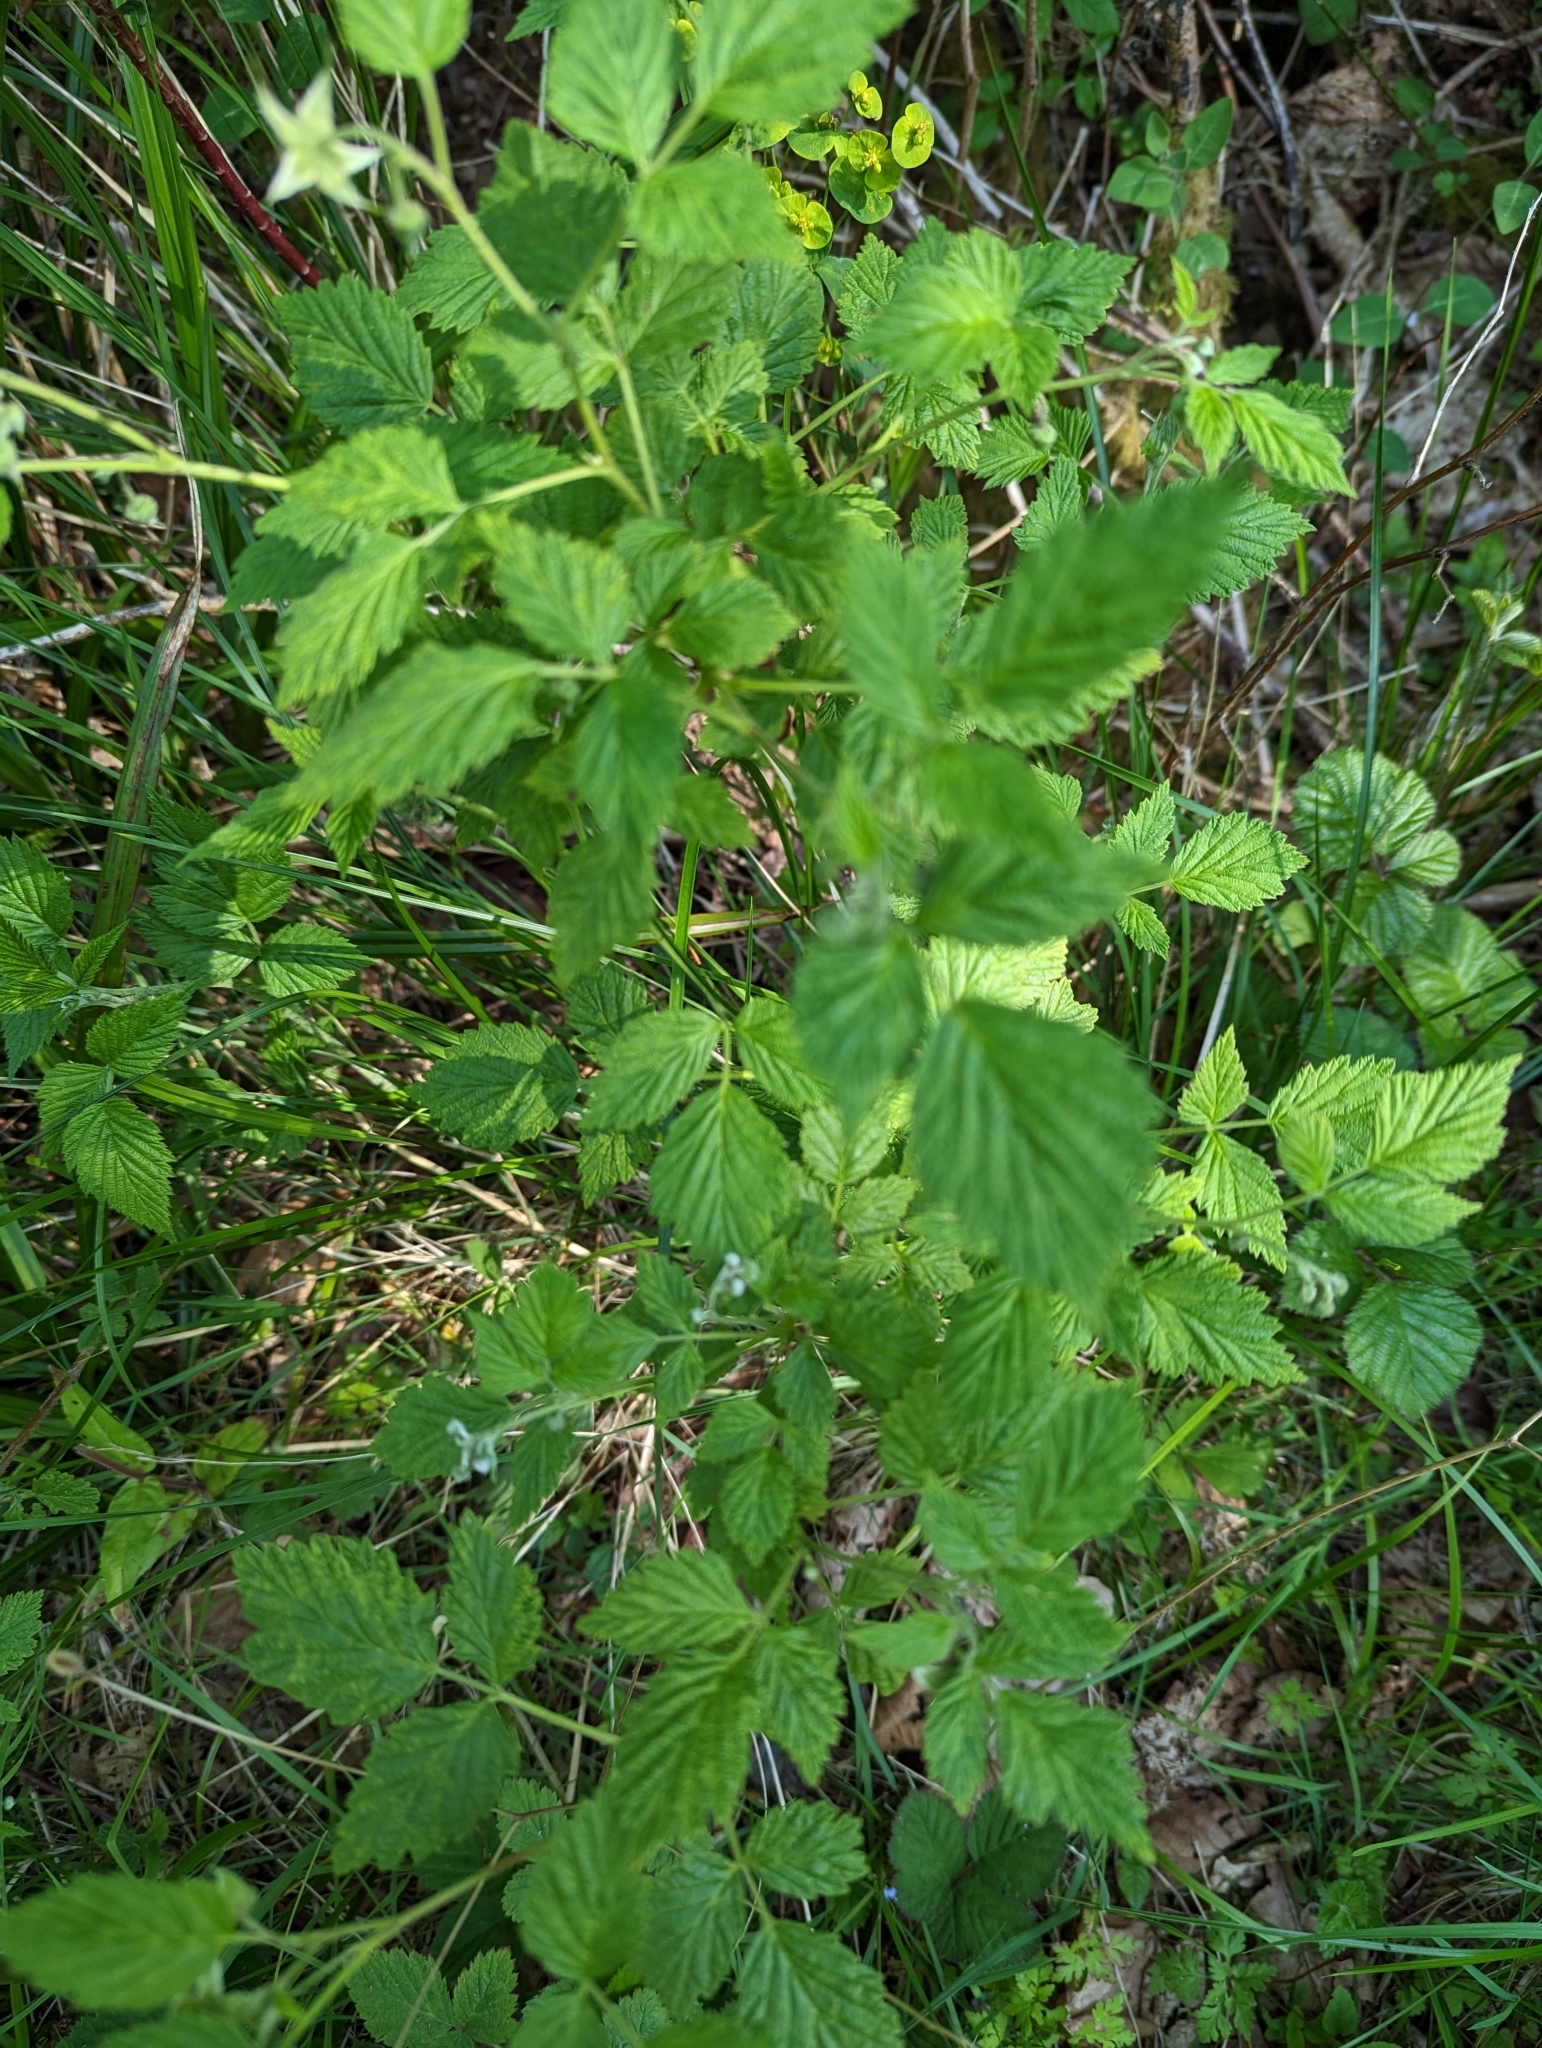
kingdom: Plantae
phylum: Tracheophyta
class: Magnoliopsida
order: Rosales
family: Rosaceae
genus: Rubus
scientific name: Rubus idaeus
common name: Raspberry
